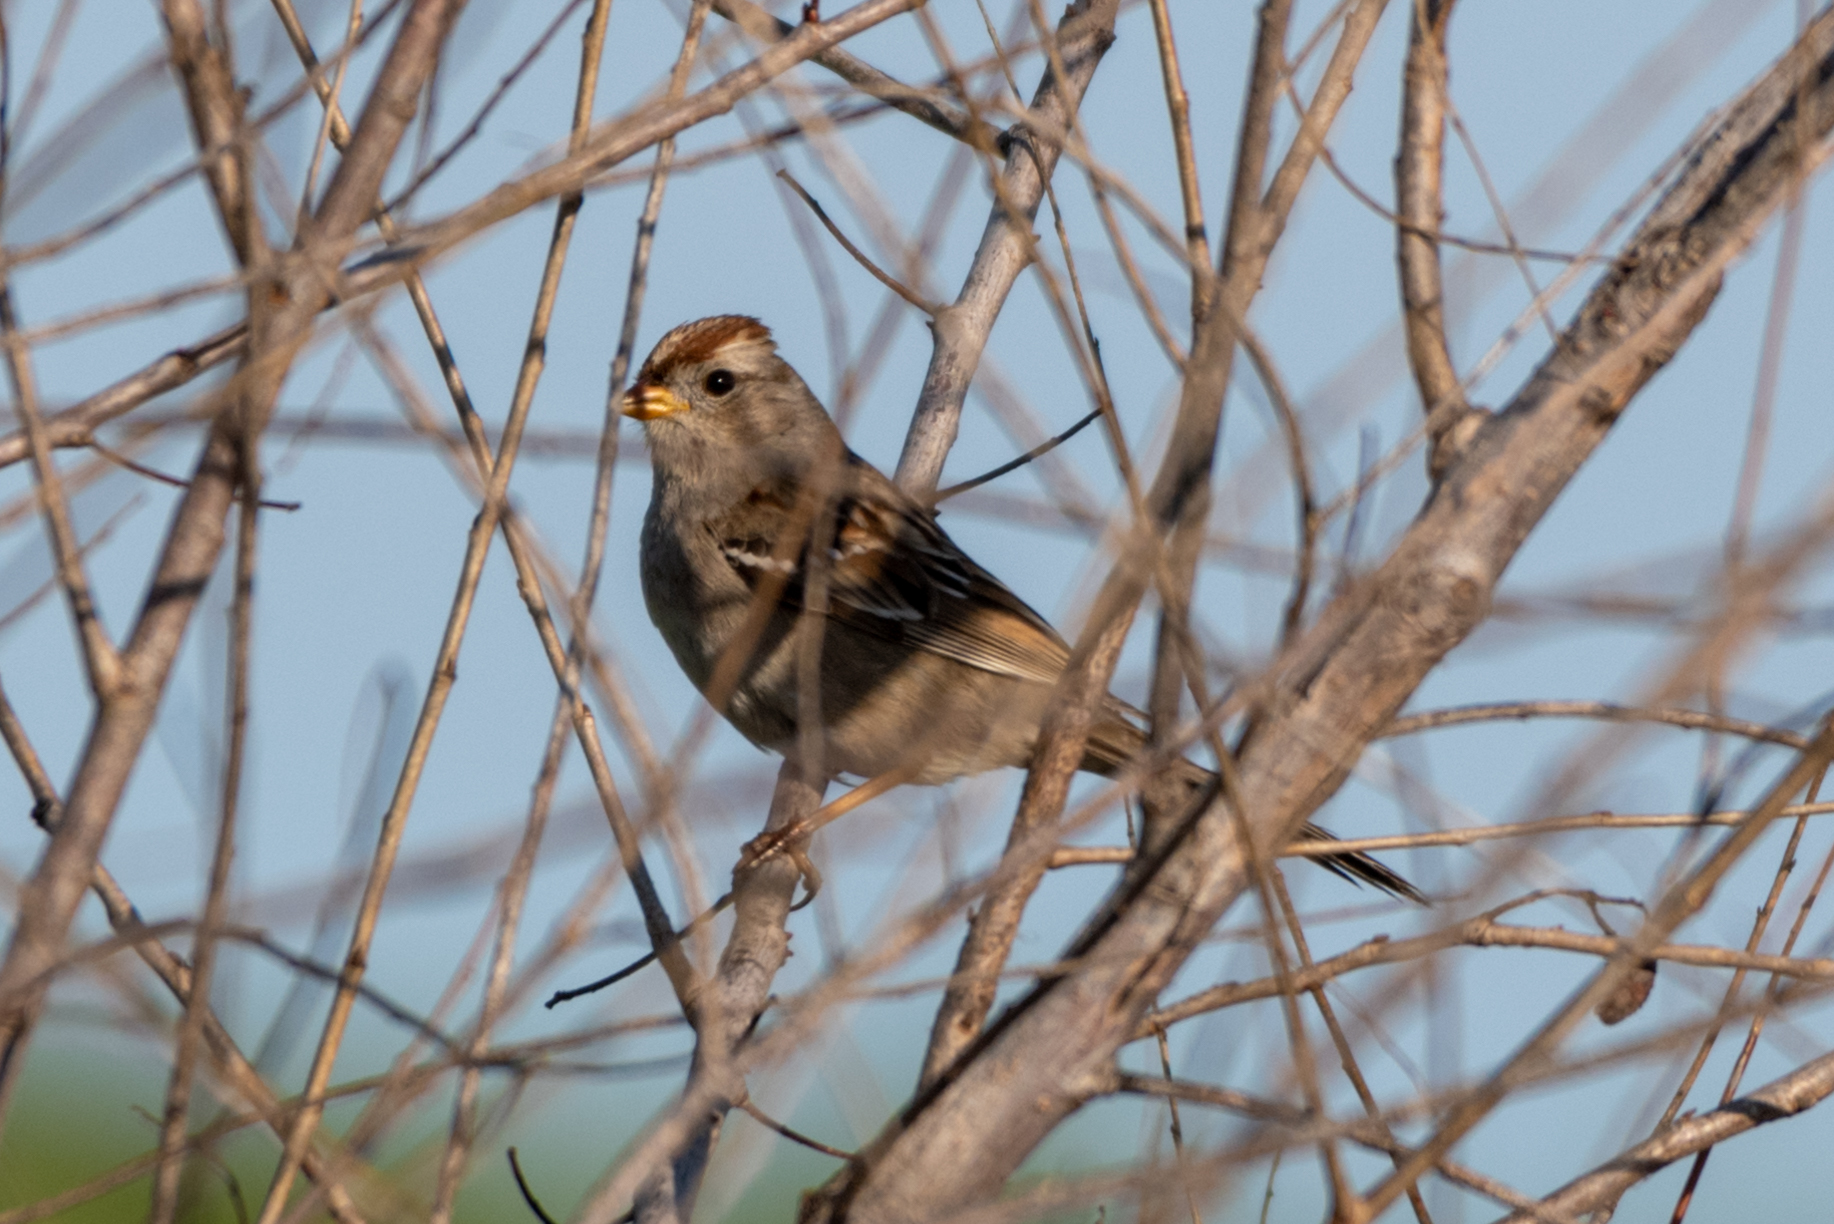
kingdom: Animalia
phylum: Chordata
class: Aves
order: Passeriformes
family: Passerellidae
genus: Zonotrichia
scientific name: Zonotrichia leucophrys
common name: White-crowned sparrow
